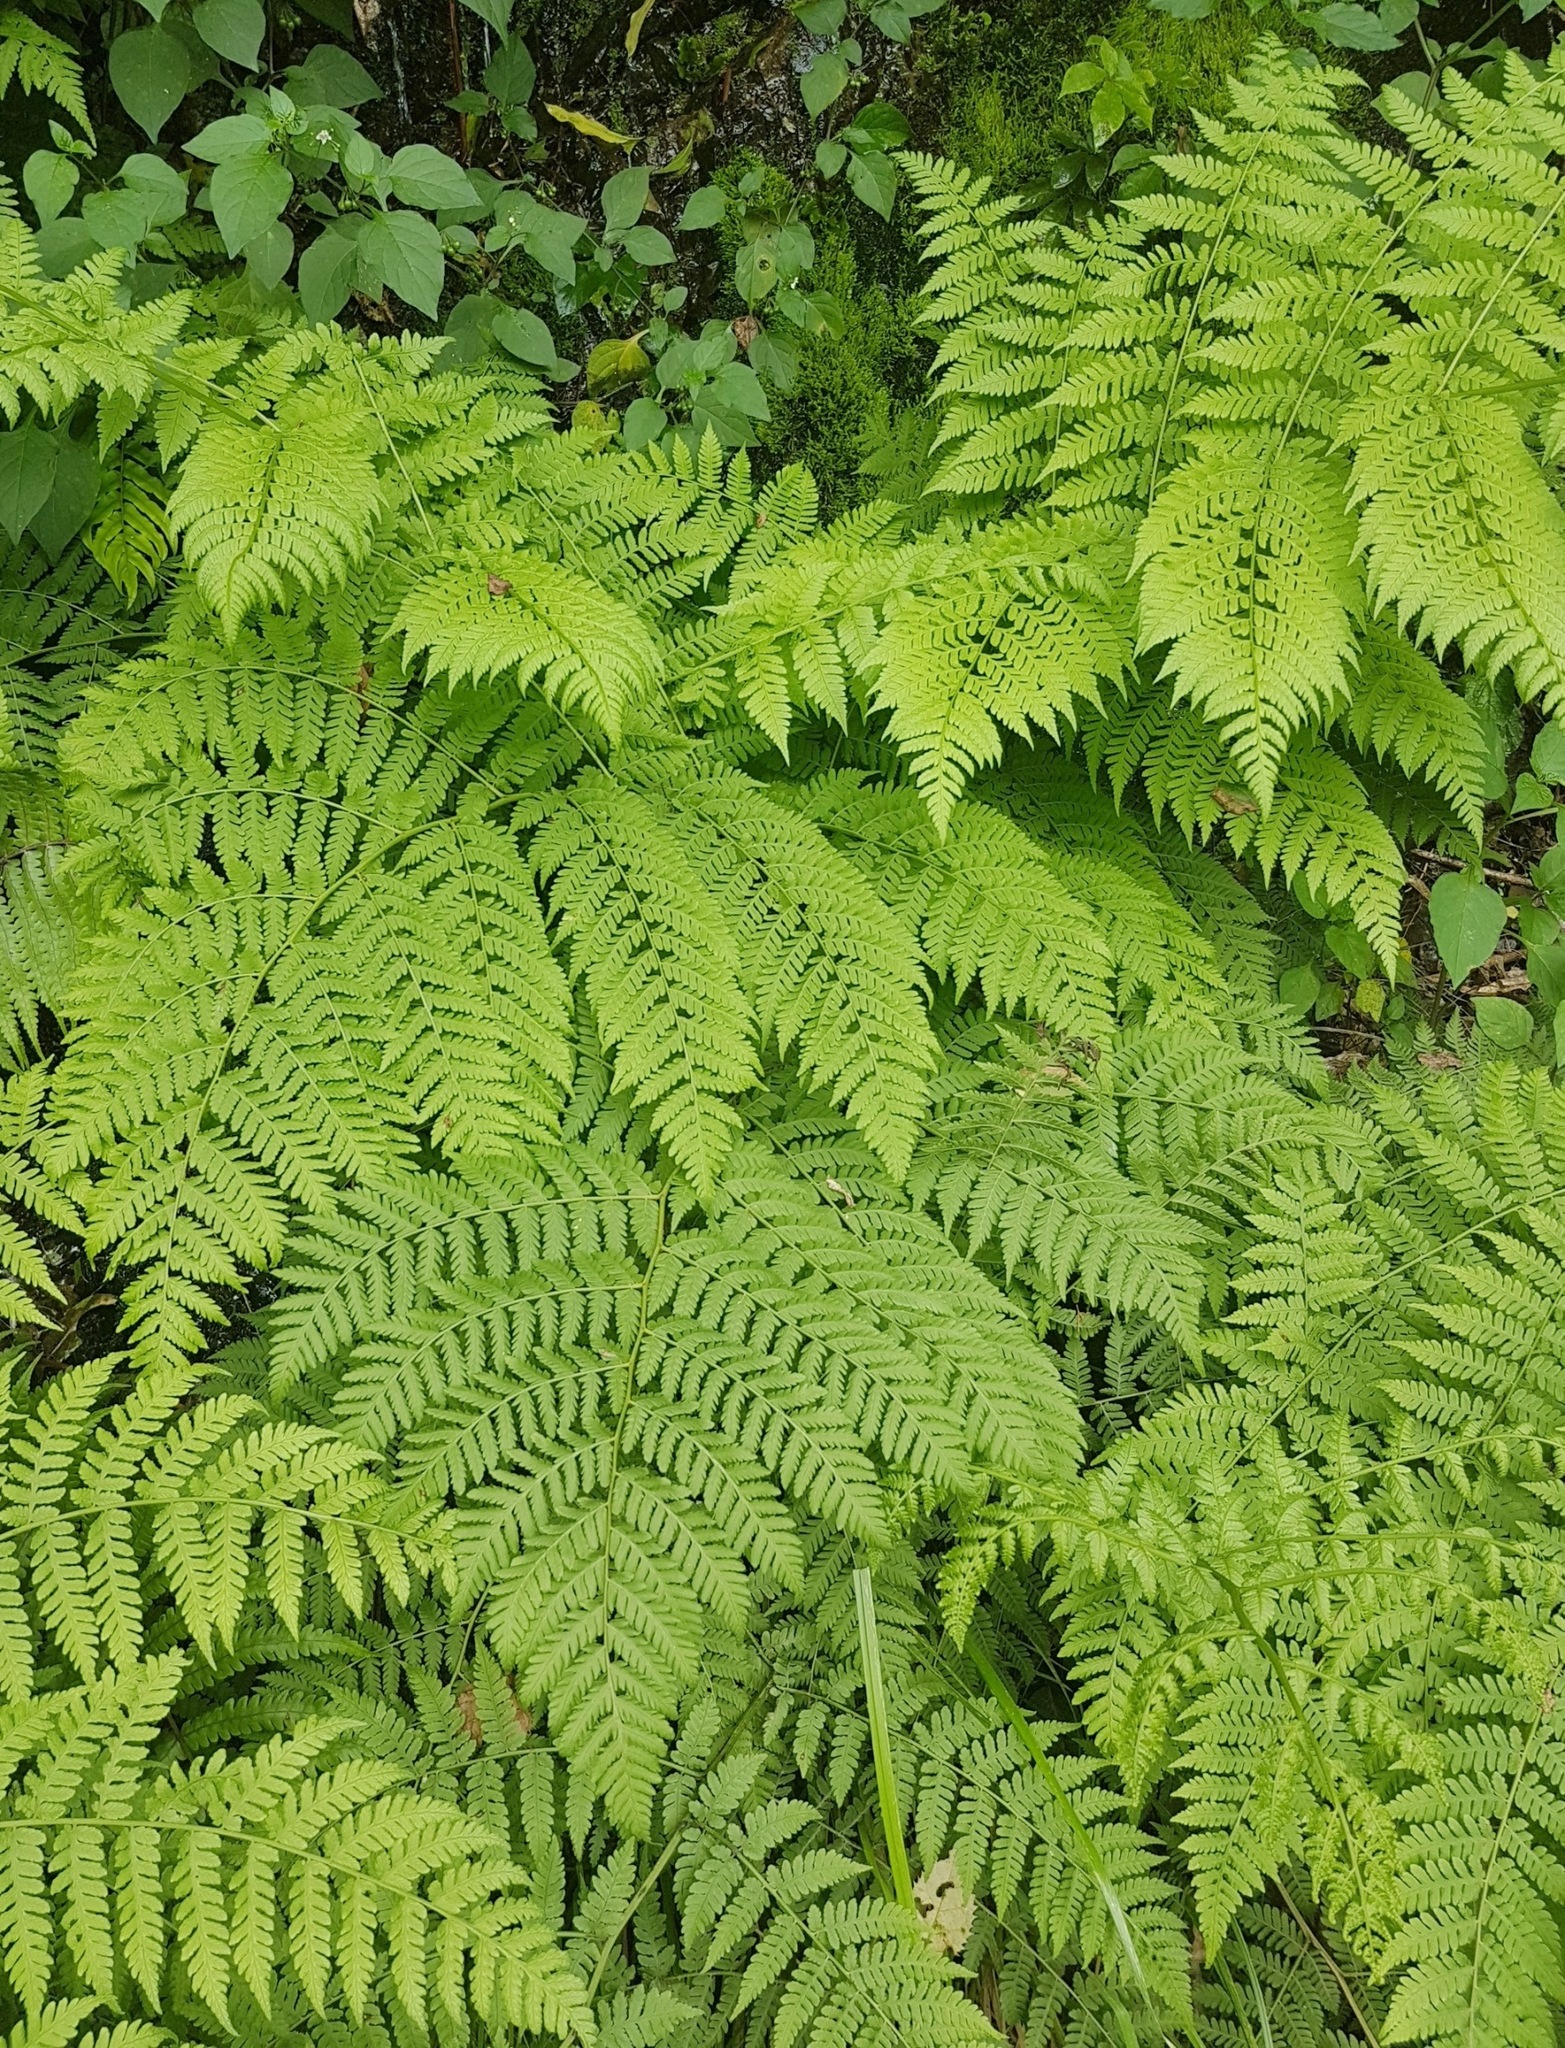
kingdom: Plantae
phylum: Tracheophyta
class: Polypodiopsida
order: Polypodiales
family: Athyriaceae
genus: Diplazium
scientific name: Diplazium australe
